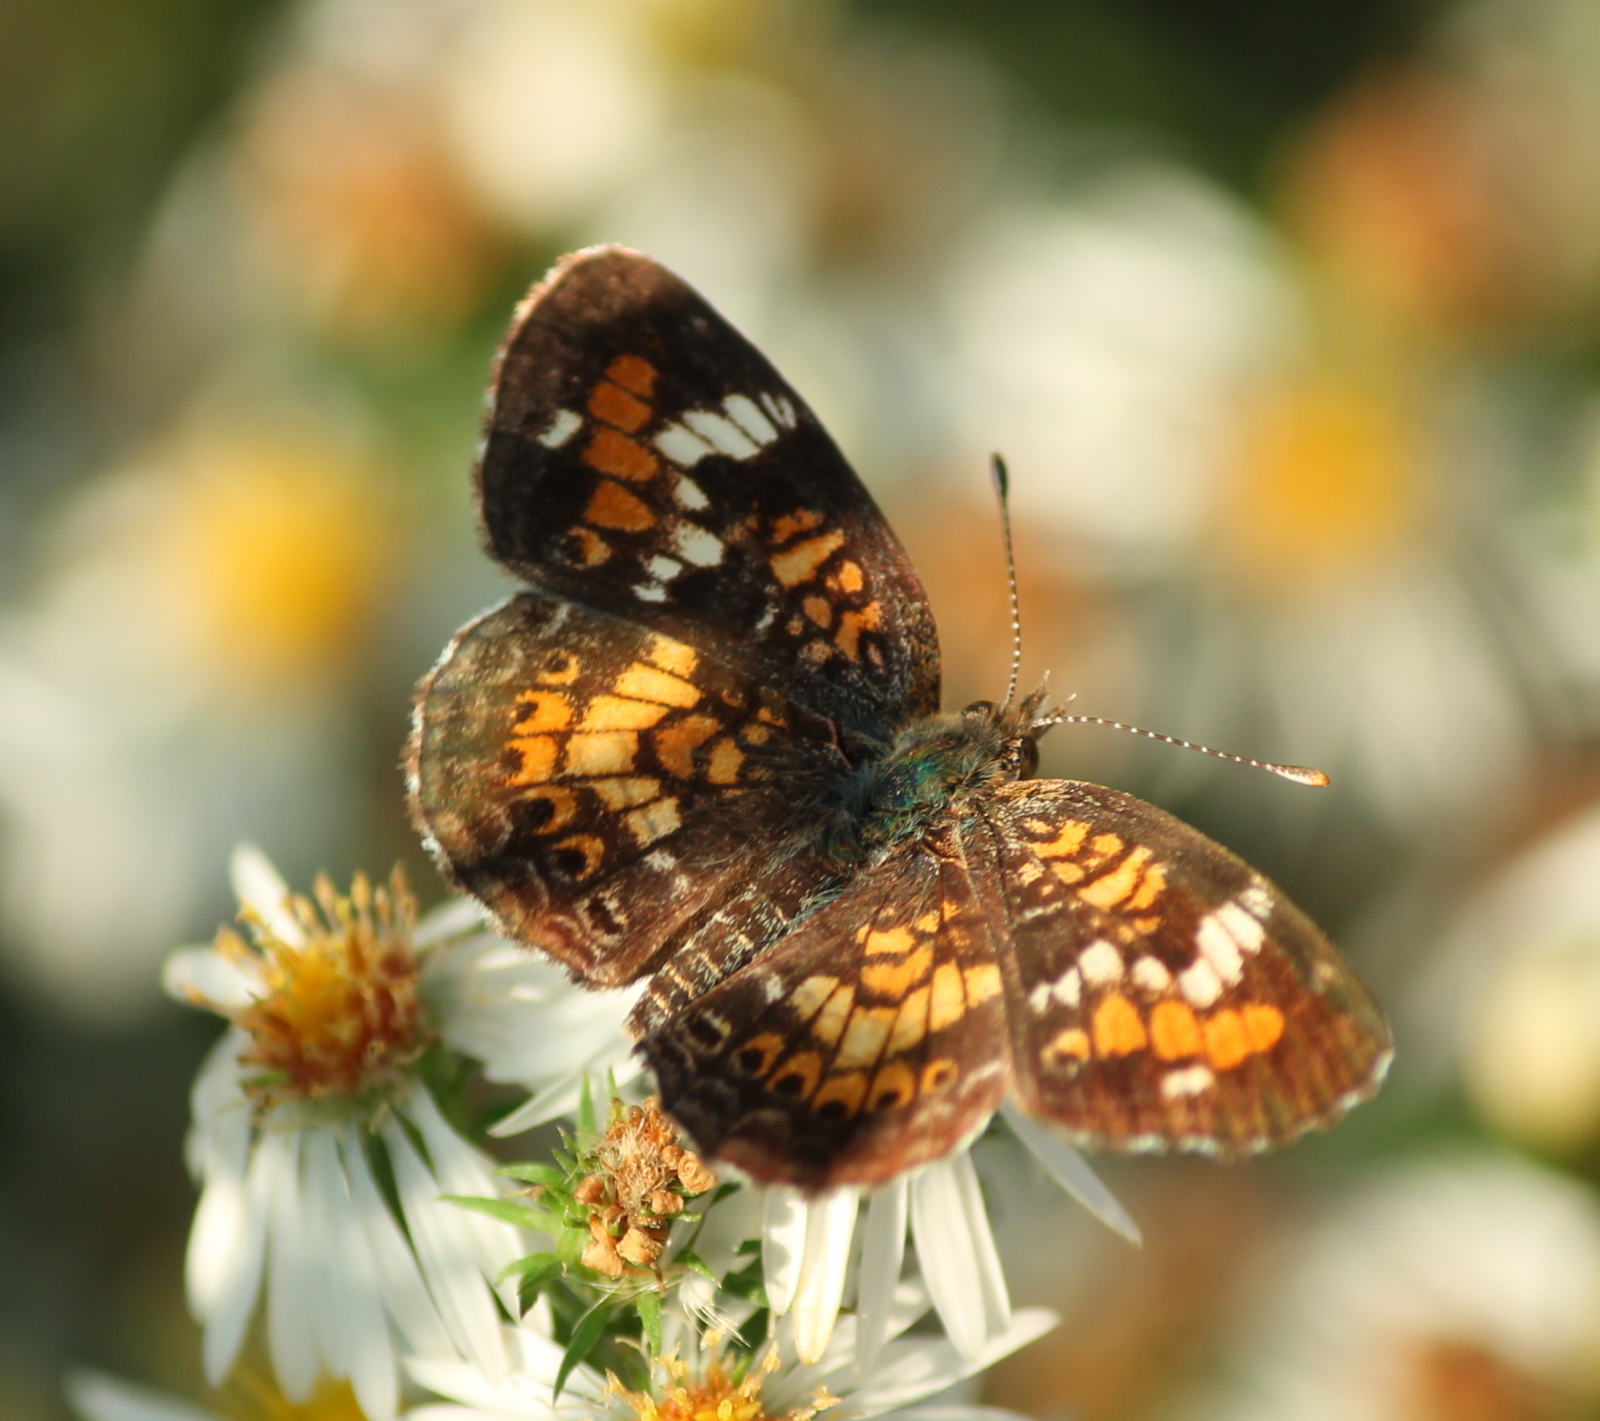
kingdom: Animalia
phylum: Arthropoda
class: Insecta
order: Lepidoptera
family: Nymphalidae
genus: Phyciodes
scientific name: Phyciodes phaon
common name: Phaon crescent
